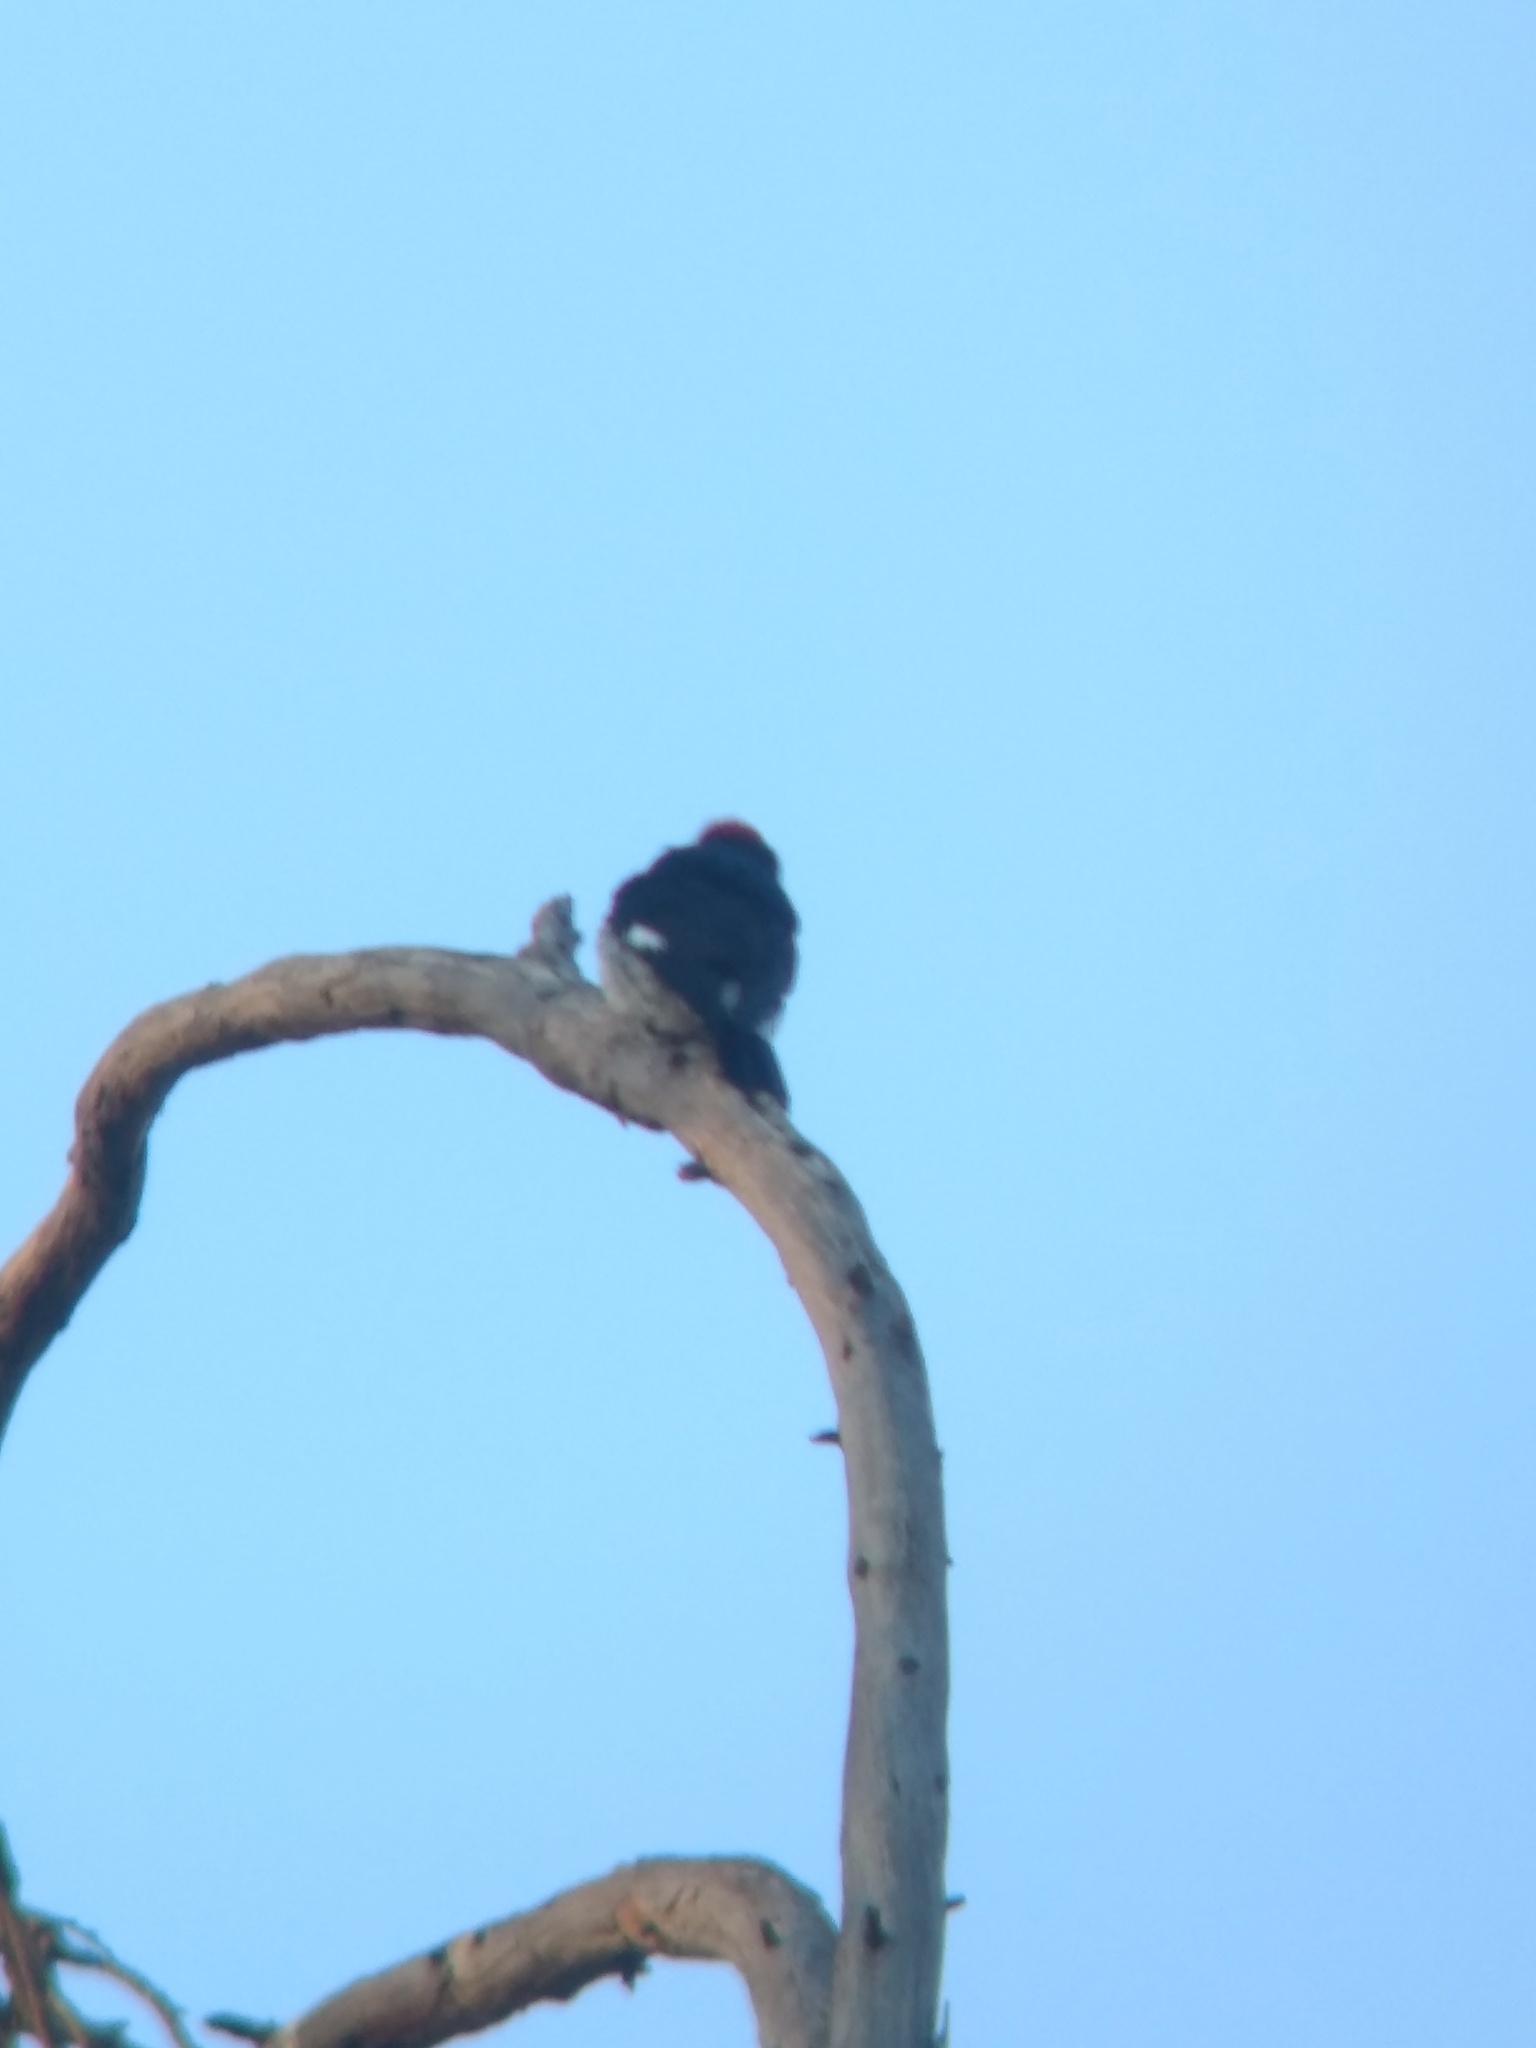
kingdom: Animalia
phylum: Chordata
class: Aves
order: Piciformes
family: Picidae
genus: Melanerpes
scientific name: Melanerpes formicivorus
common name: Acorn woodpecker
